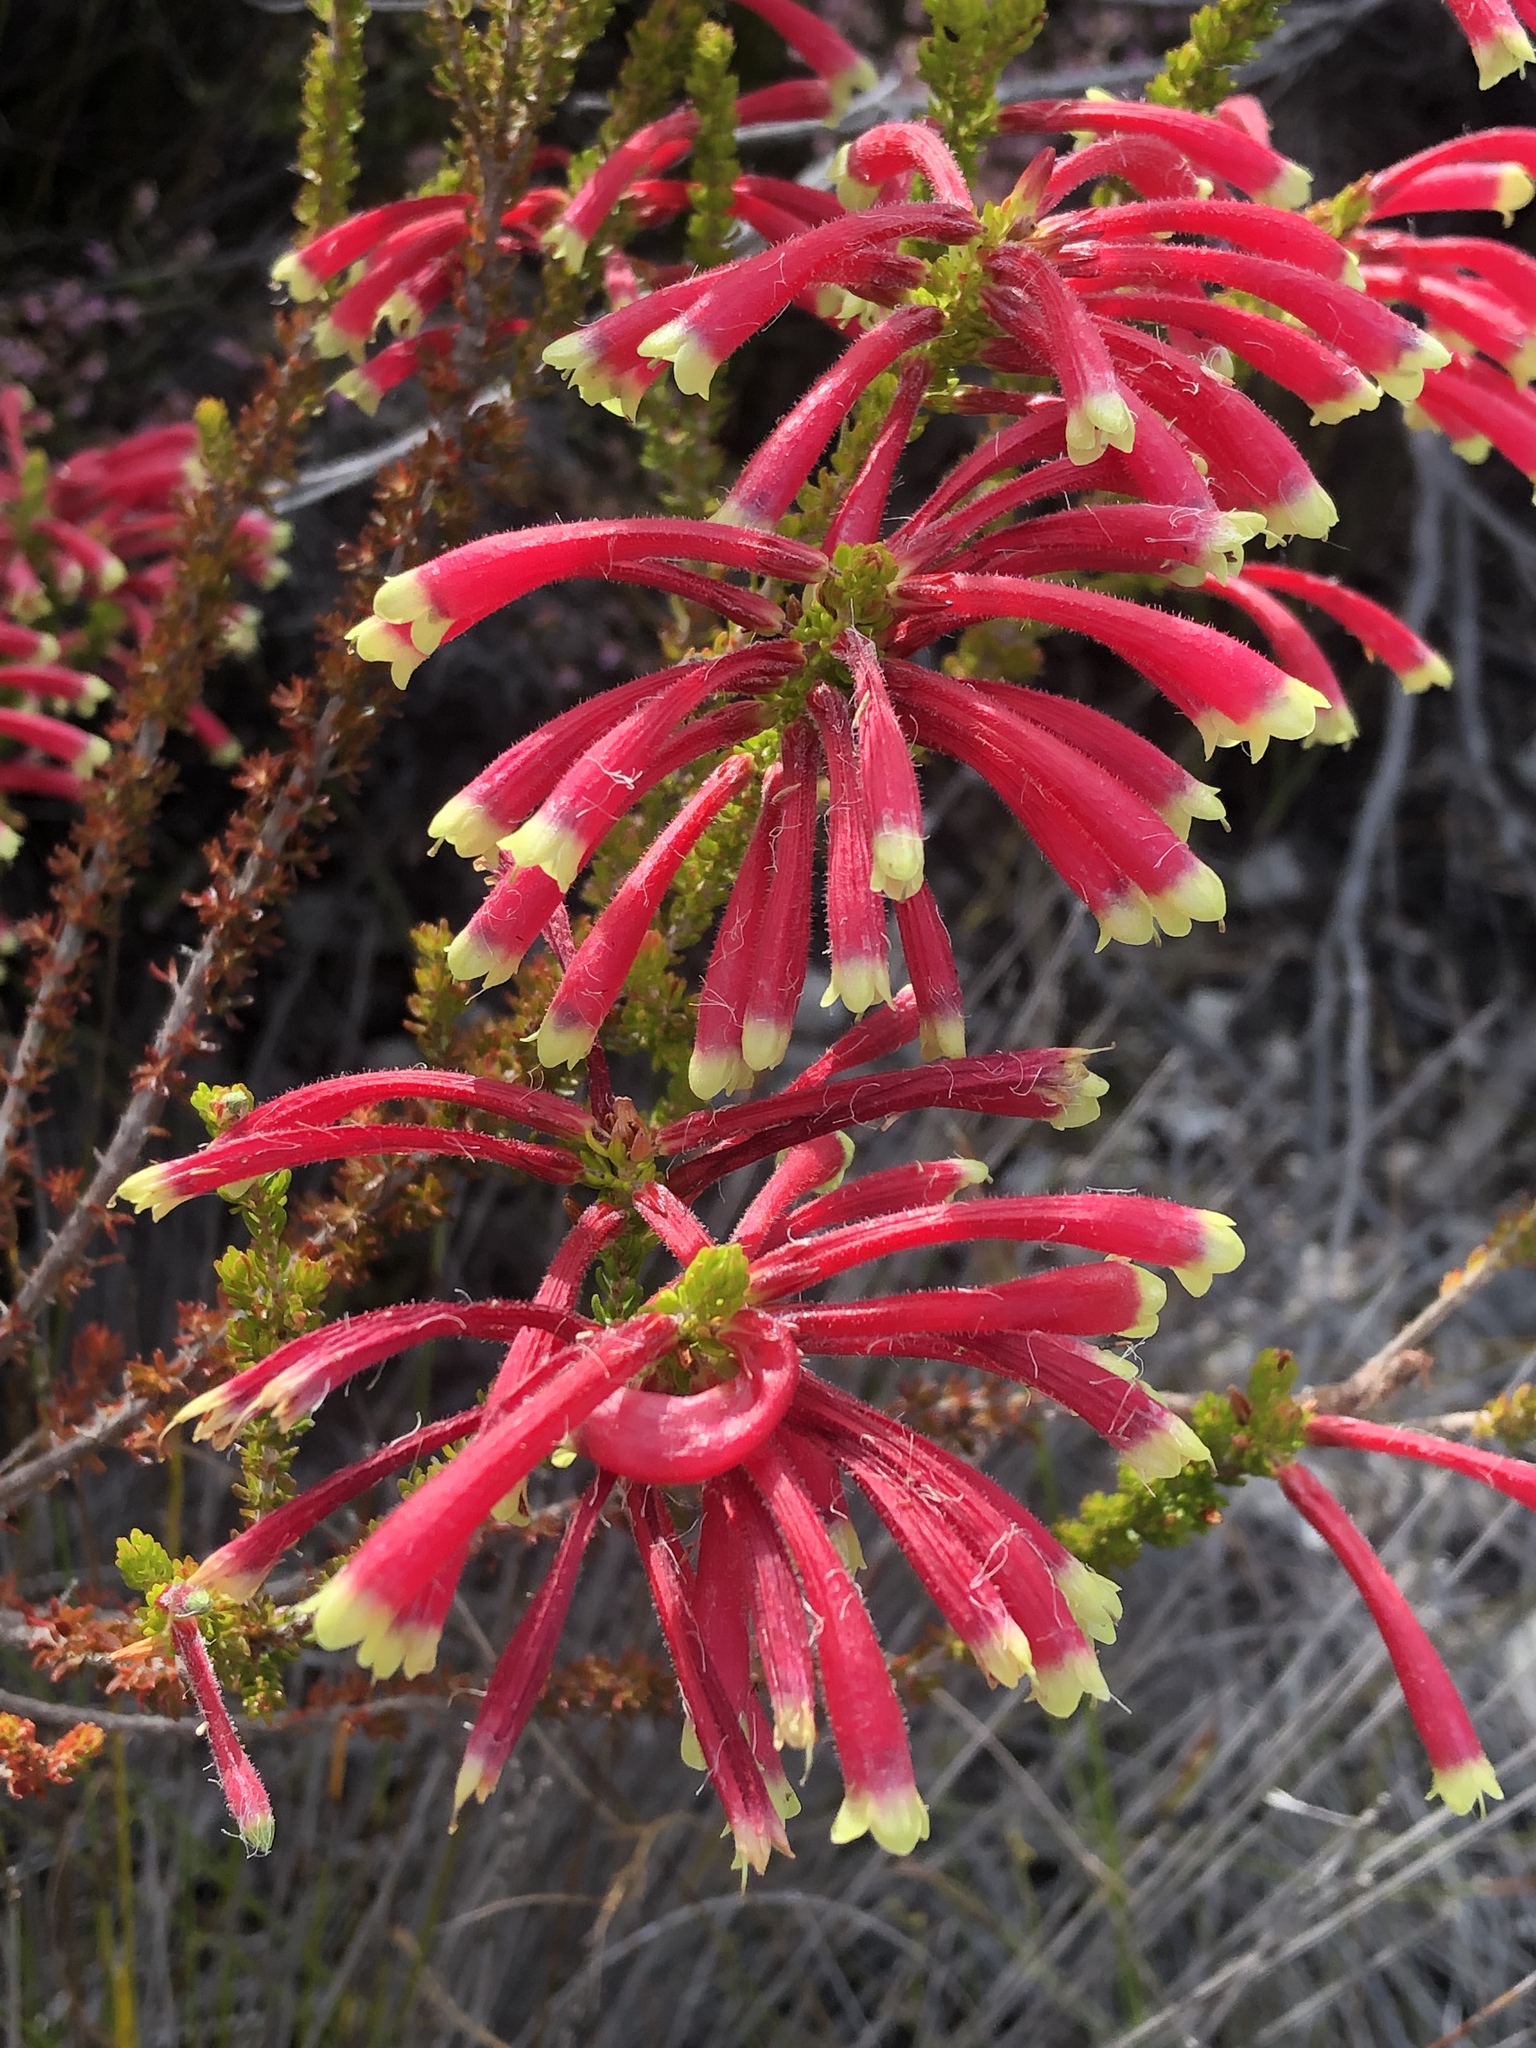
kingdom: Plantae
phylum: Tracheophyta
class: Magnoliopsida
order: Ericales
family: Ericaceae
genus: Erica
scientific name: Erica densifolia
